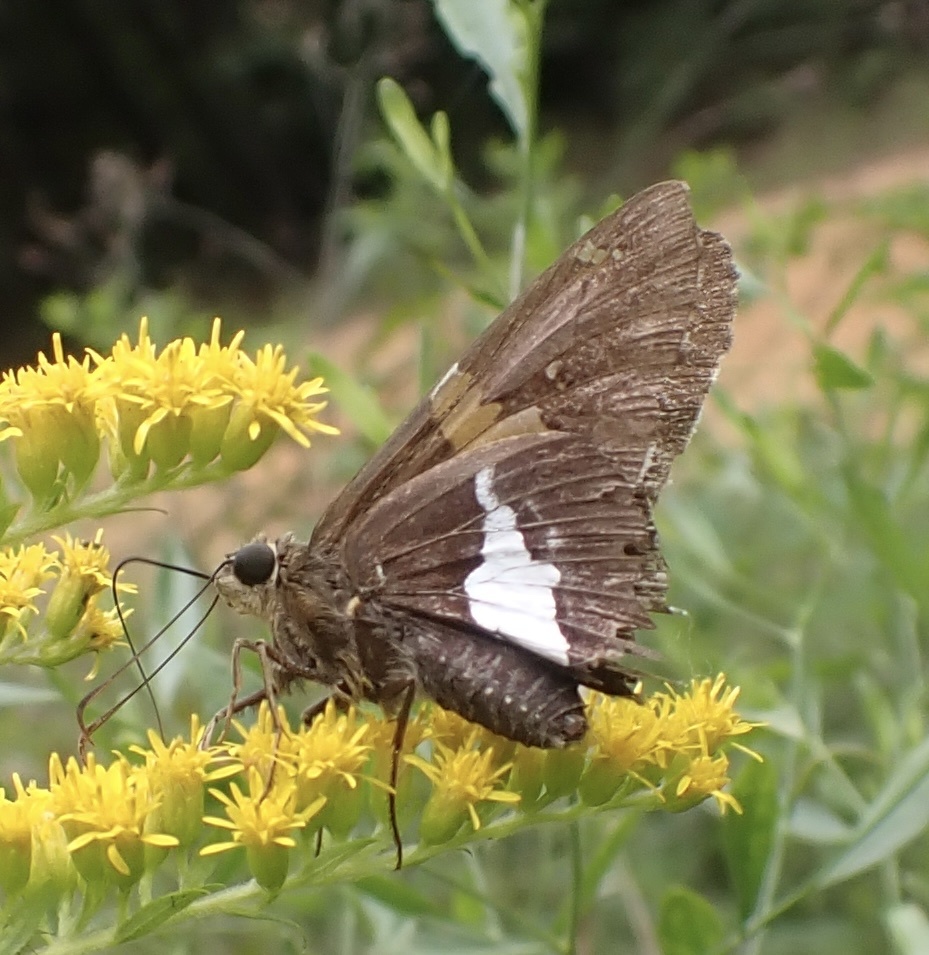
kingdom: Animalia
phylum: Arthropoda
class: Insecta
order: Lepidoptera
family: Hesperiidae
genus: Epargyreus
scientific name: Epargyreus clarus
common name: Silver-spotted skipper
